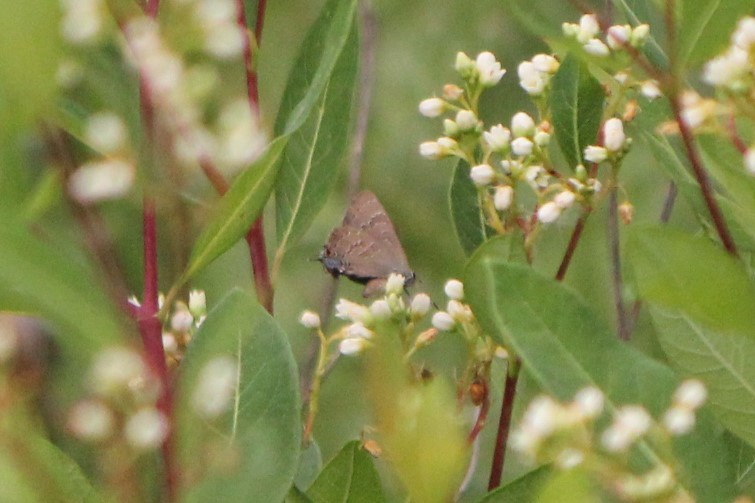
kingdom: Animalia
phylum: Arthropoda
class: Insecta
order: Lepidoptera
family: Lycaenidae
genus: Strymon
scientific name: Strymon caryaevorus
